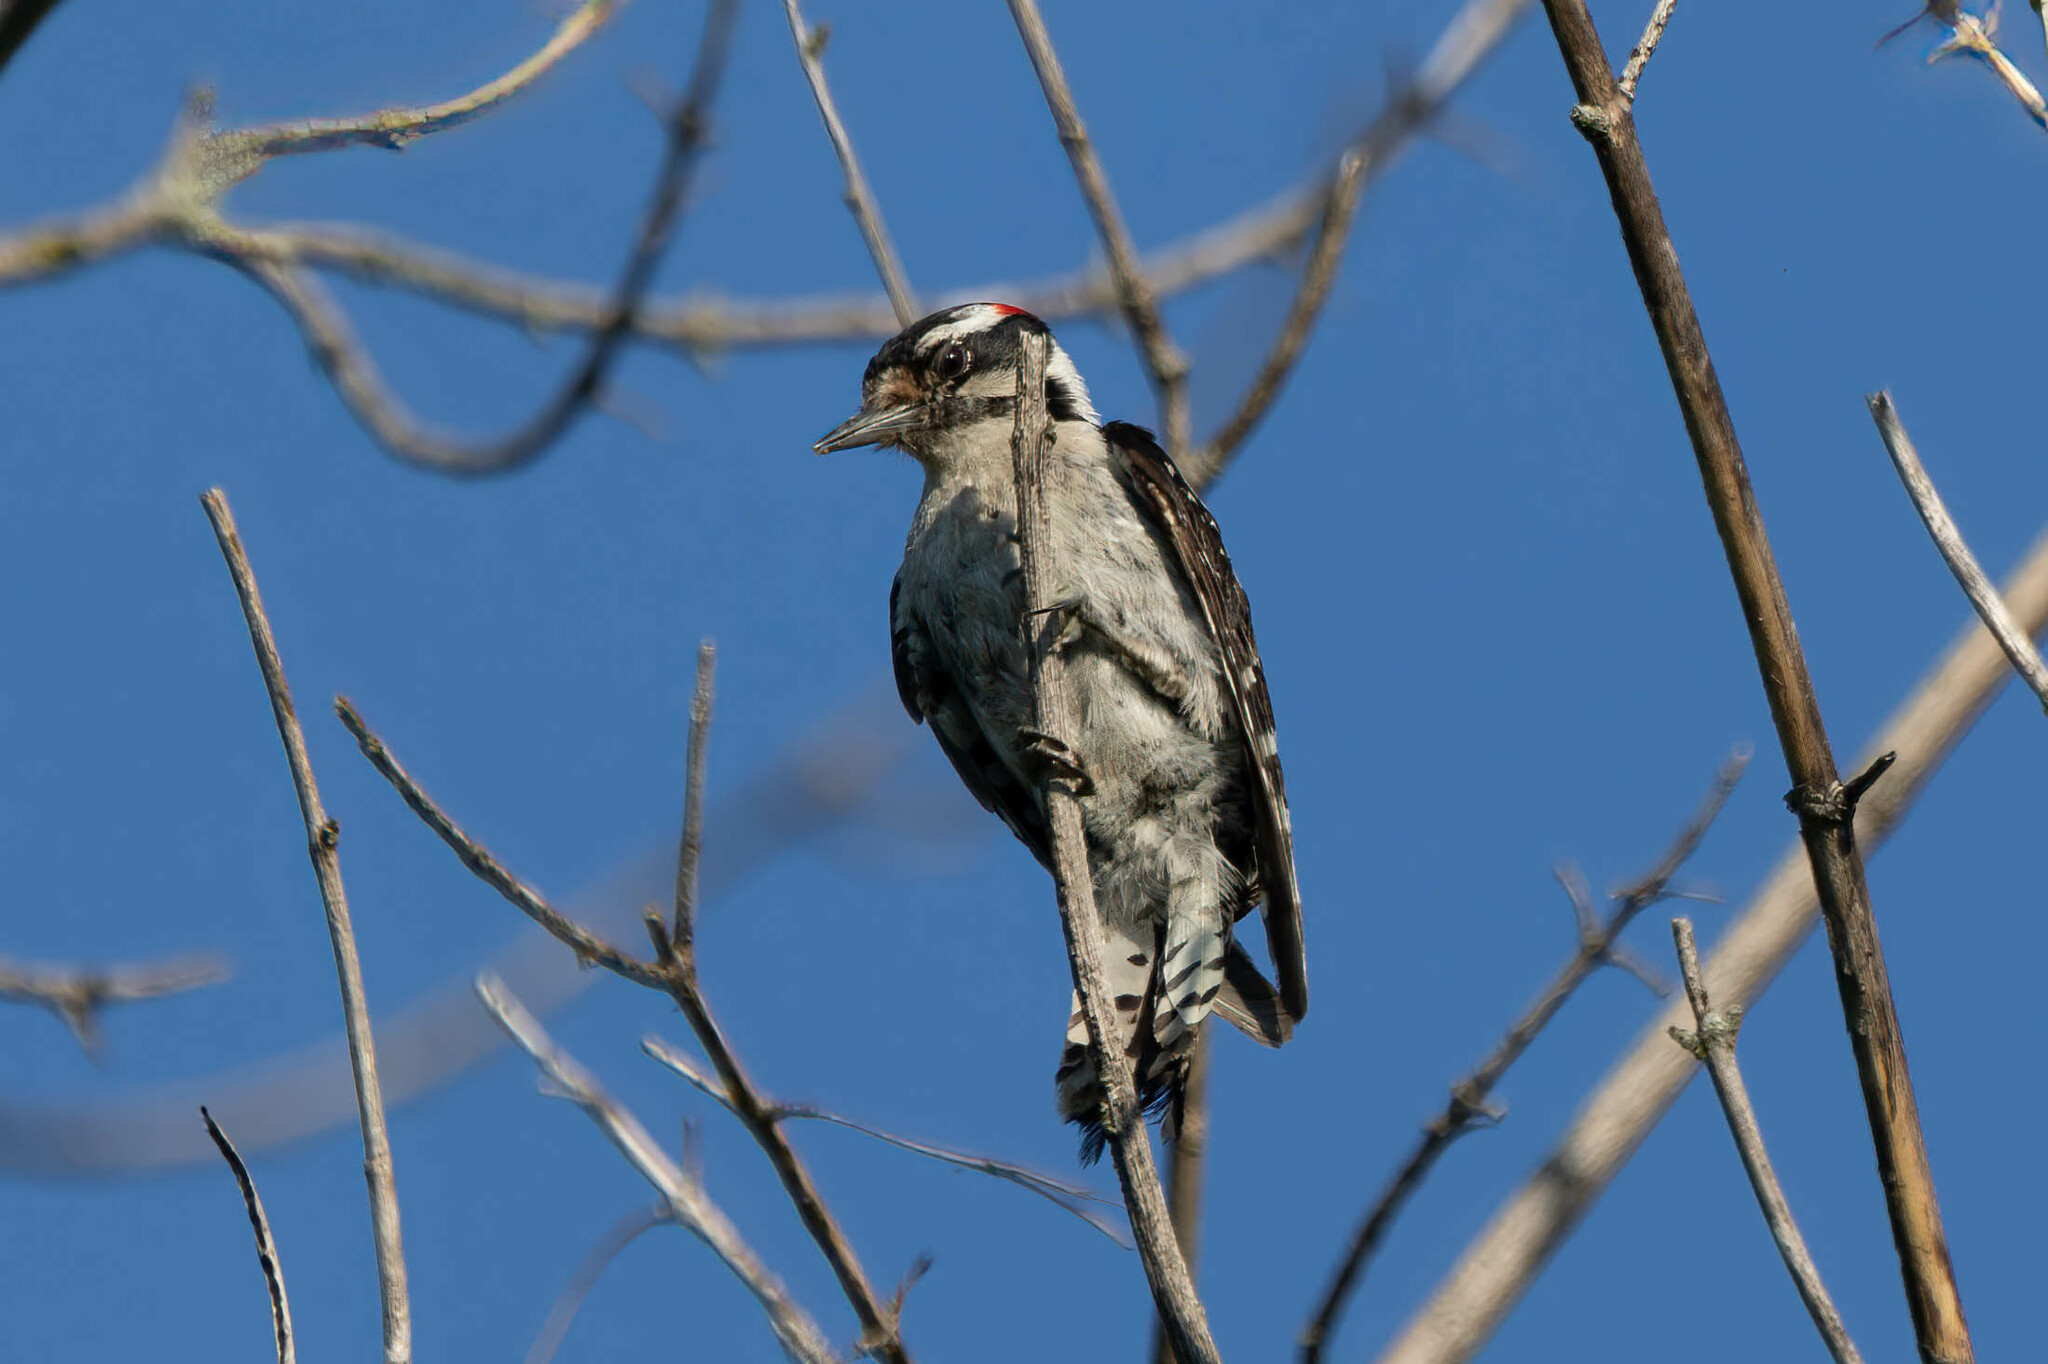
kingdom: Animalia
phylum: Chordata
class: Aves
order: Piciformes
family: Picidae
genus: Dryobates
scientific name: Dryobates pubescens
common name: Downy woodpecker
